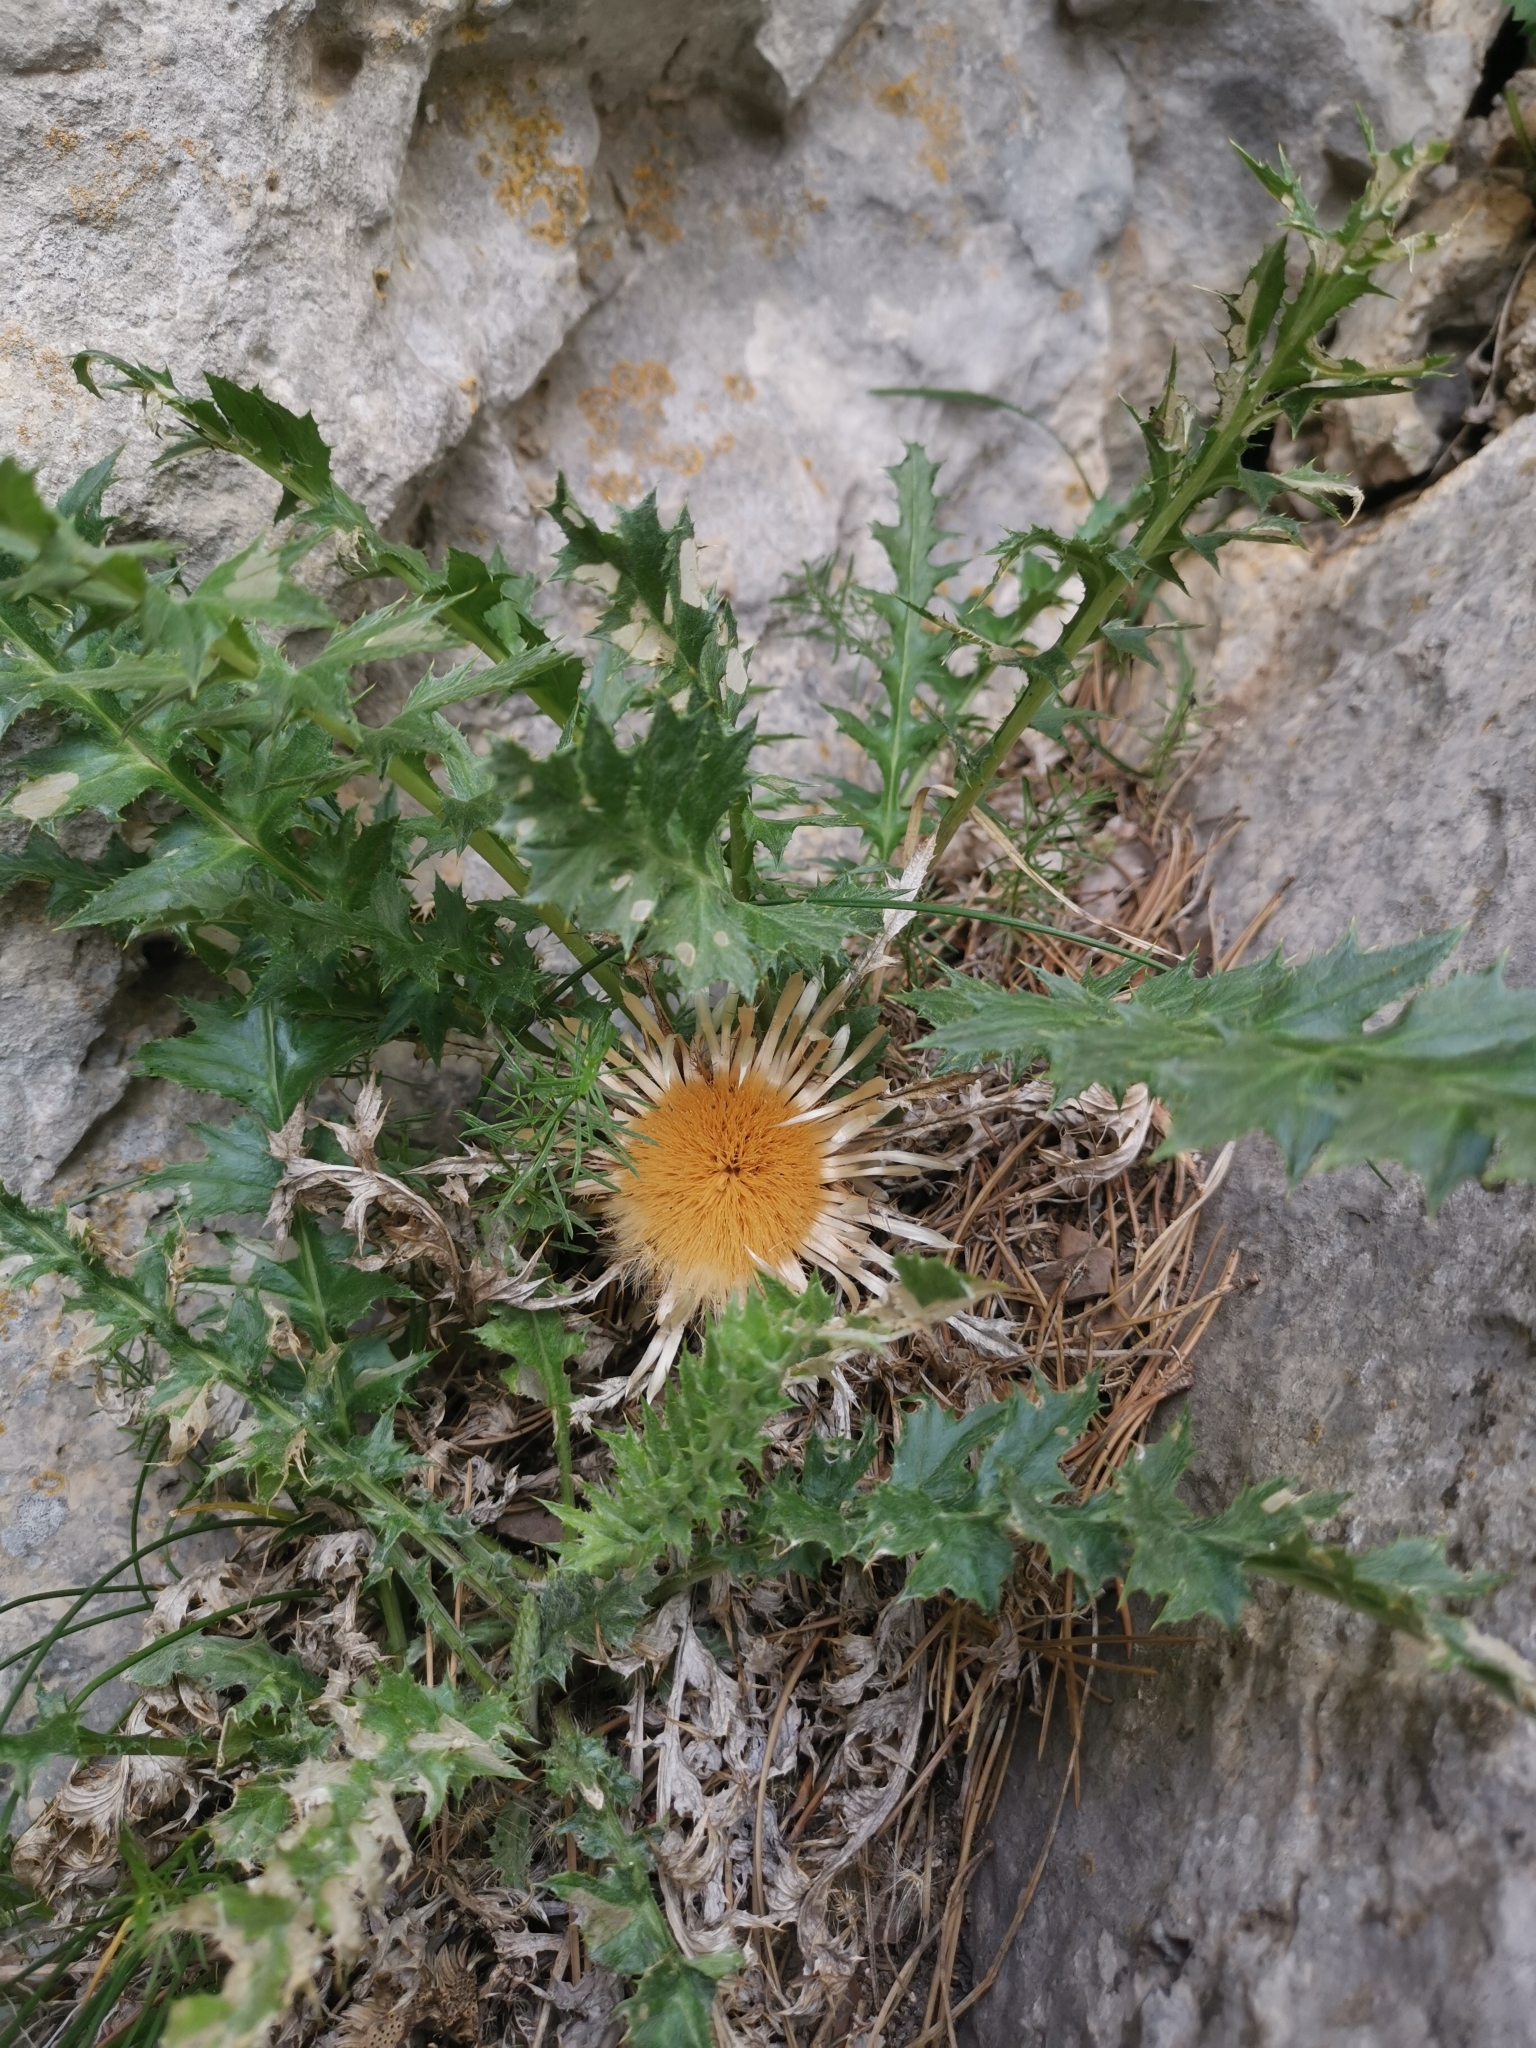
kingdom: Plantae
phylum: Tracheophyta
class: Magnoliopsida
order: Asterales
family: Asteraceae
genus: Carlina
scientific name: Carlina acaulis
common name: Stemless carline thistle
